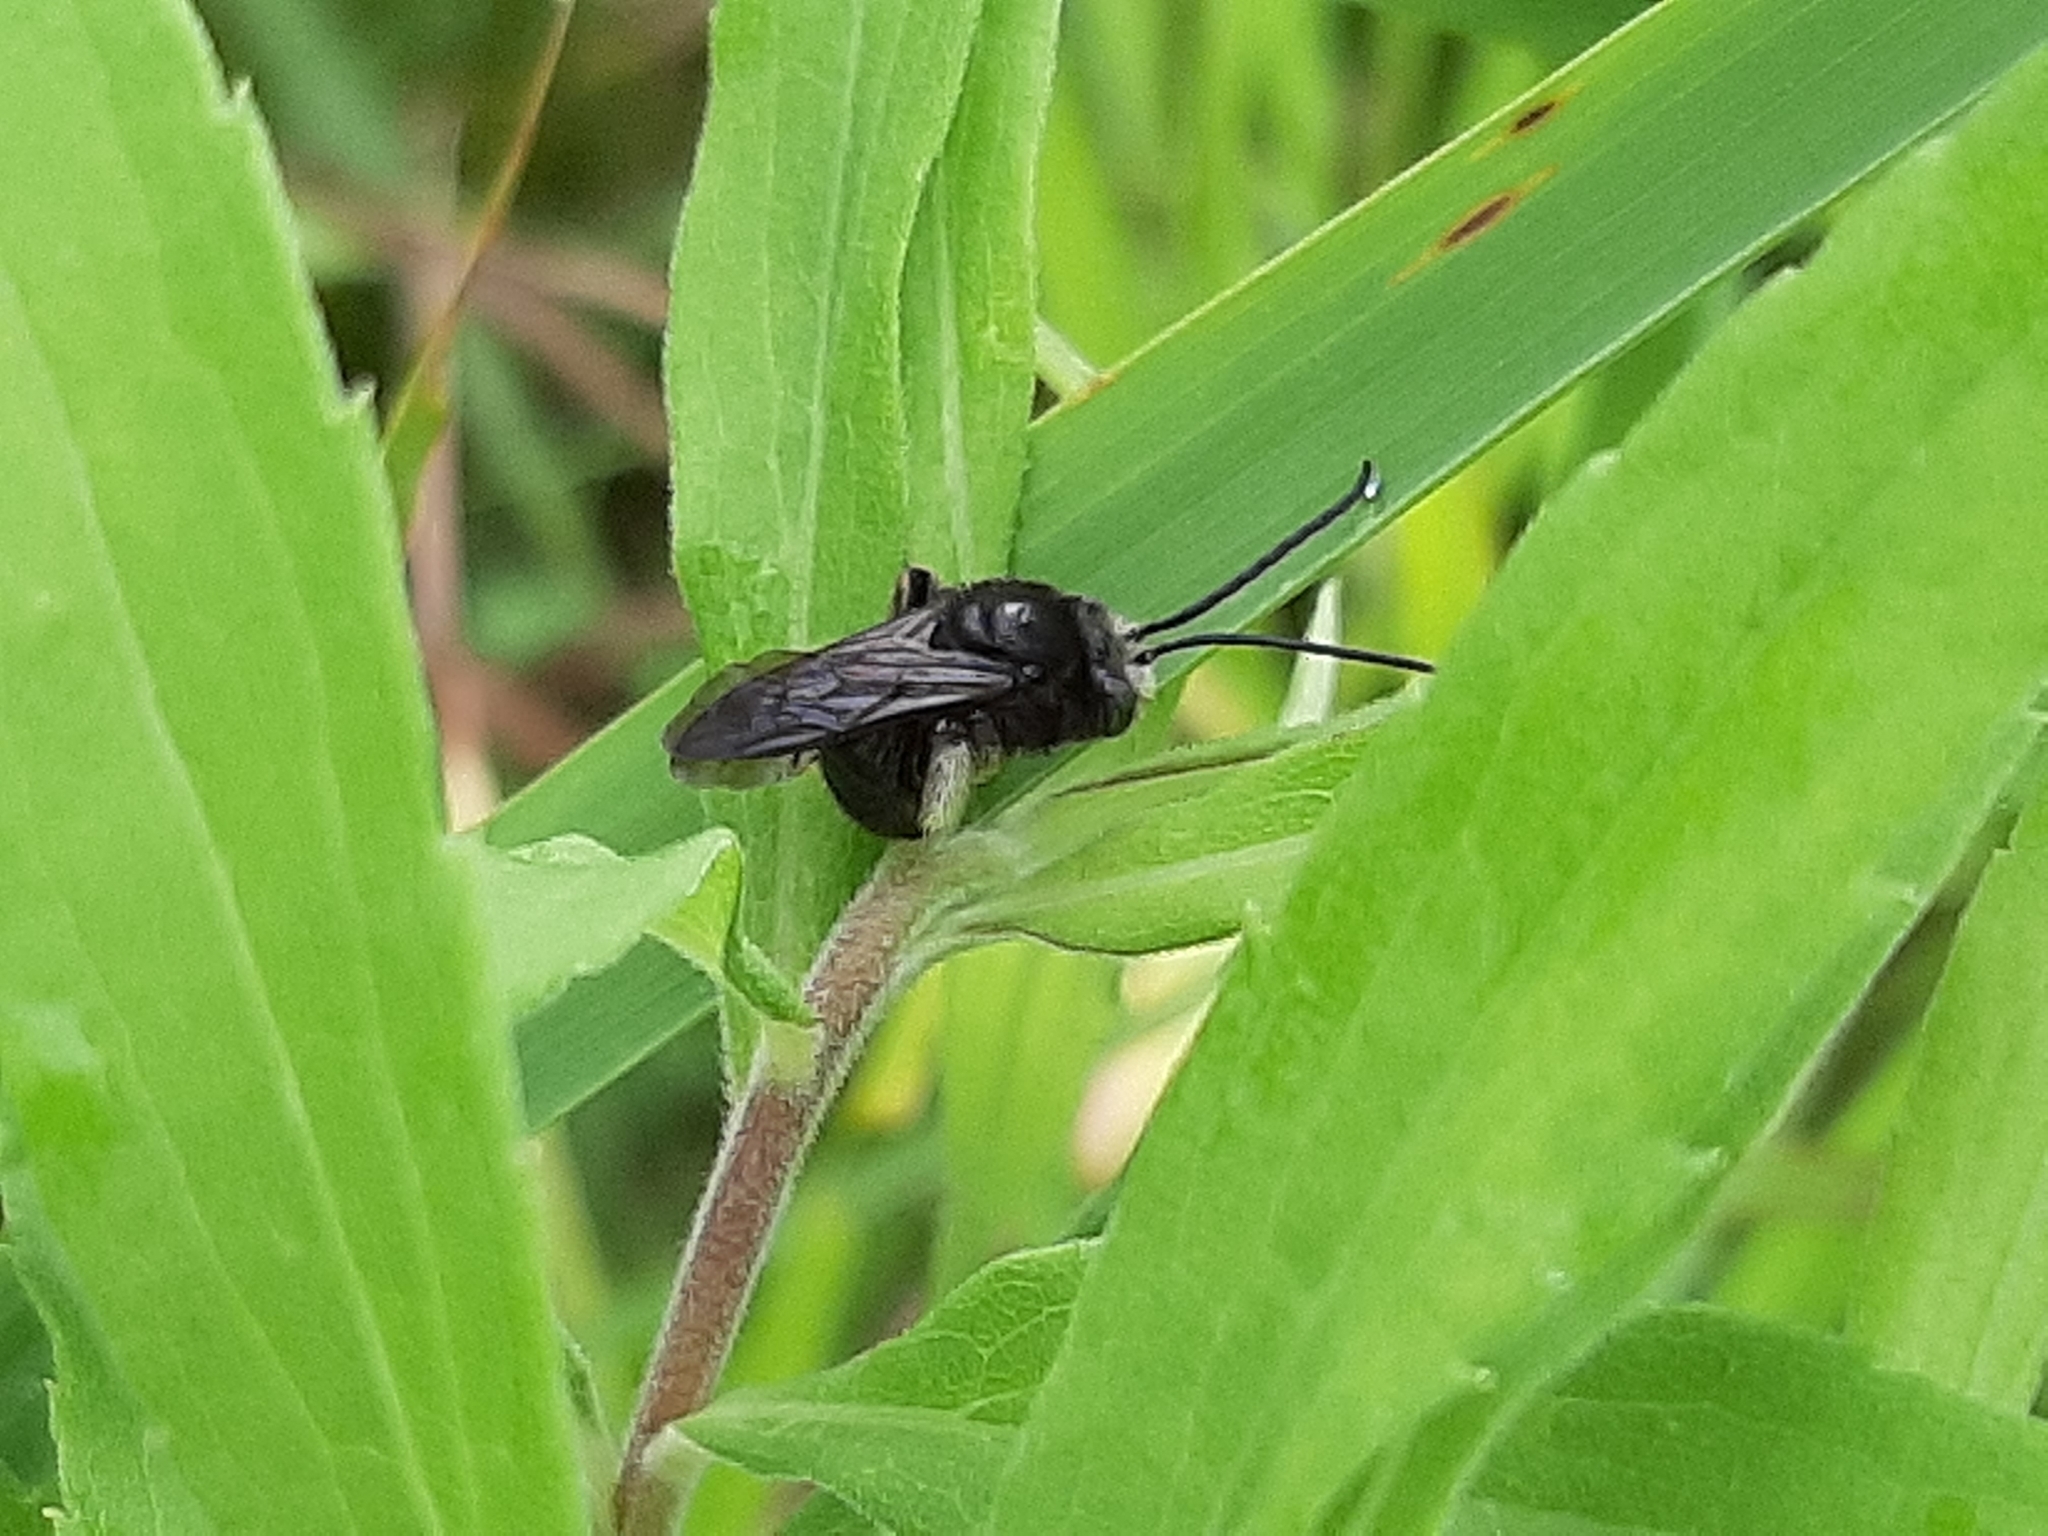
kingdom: Animalia
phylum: Arthropoda
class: Insecta
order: Hymenoptera
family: Apidae
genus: Melissodes
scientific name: Melissodes bimaculatus
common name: Two-spotted long-horned bee
